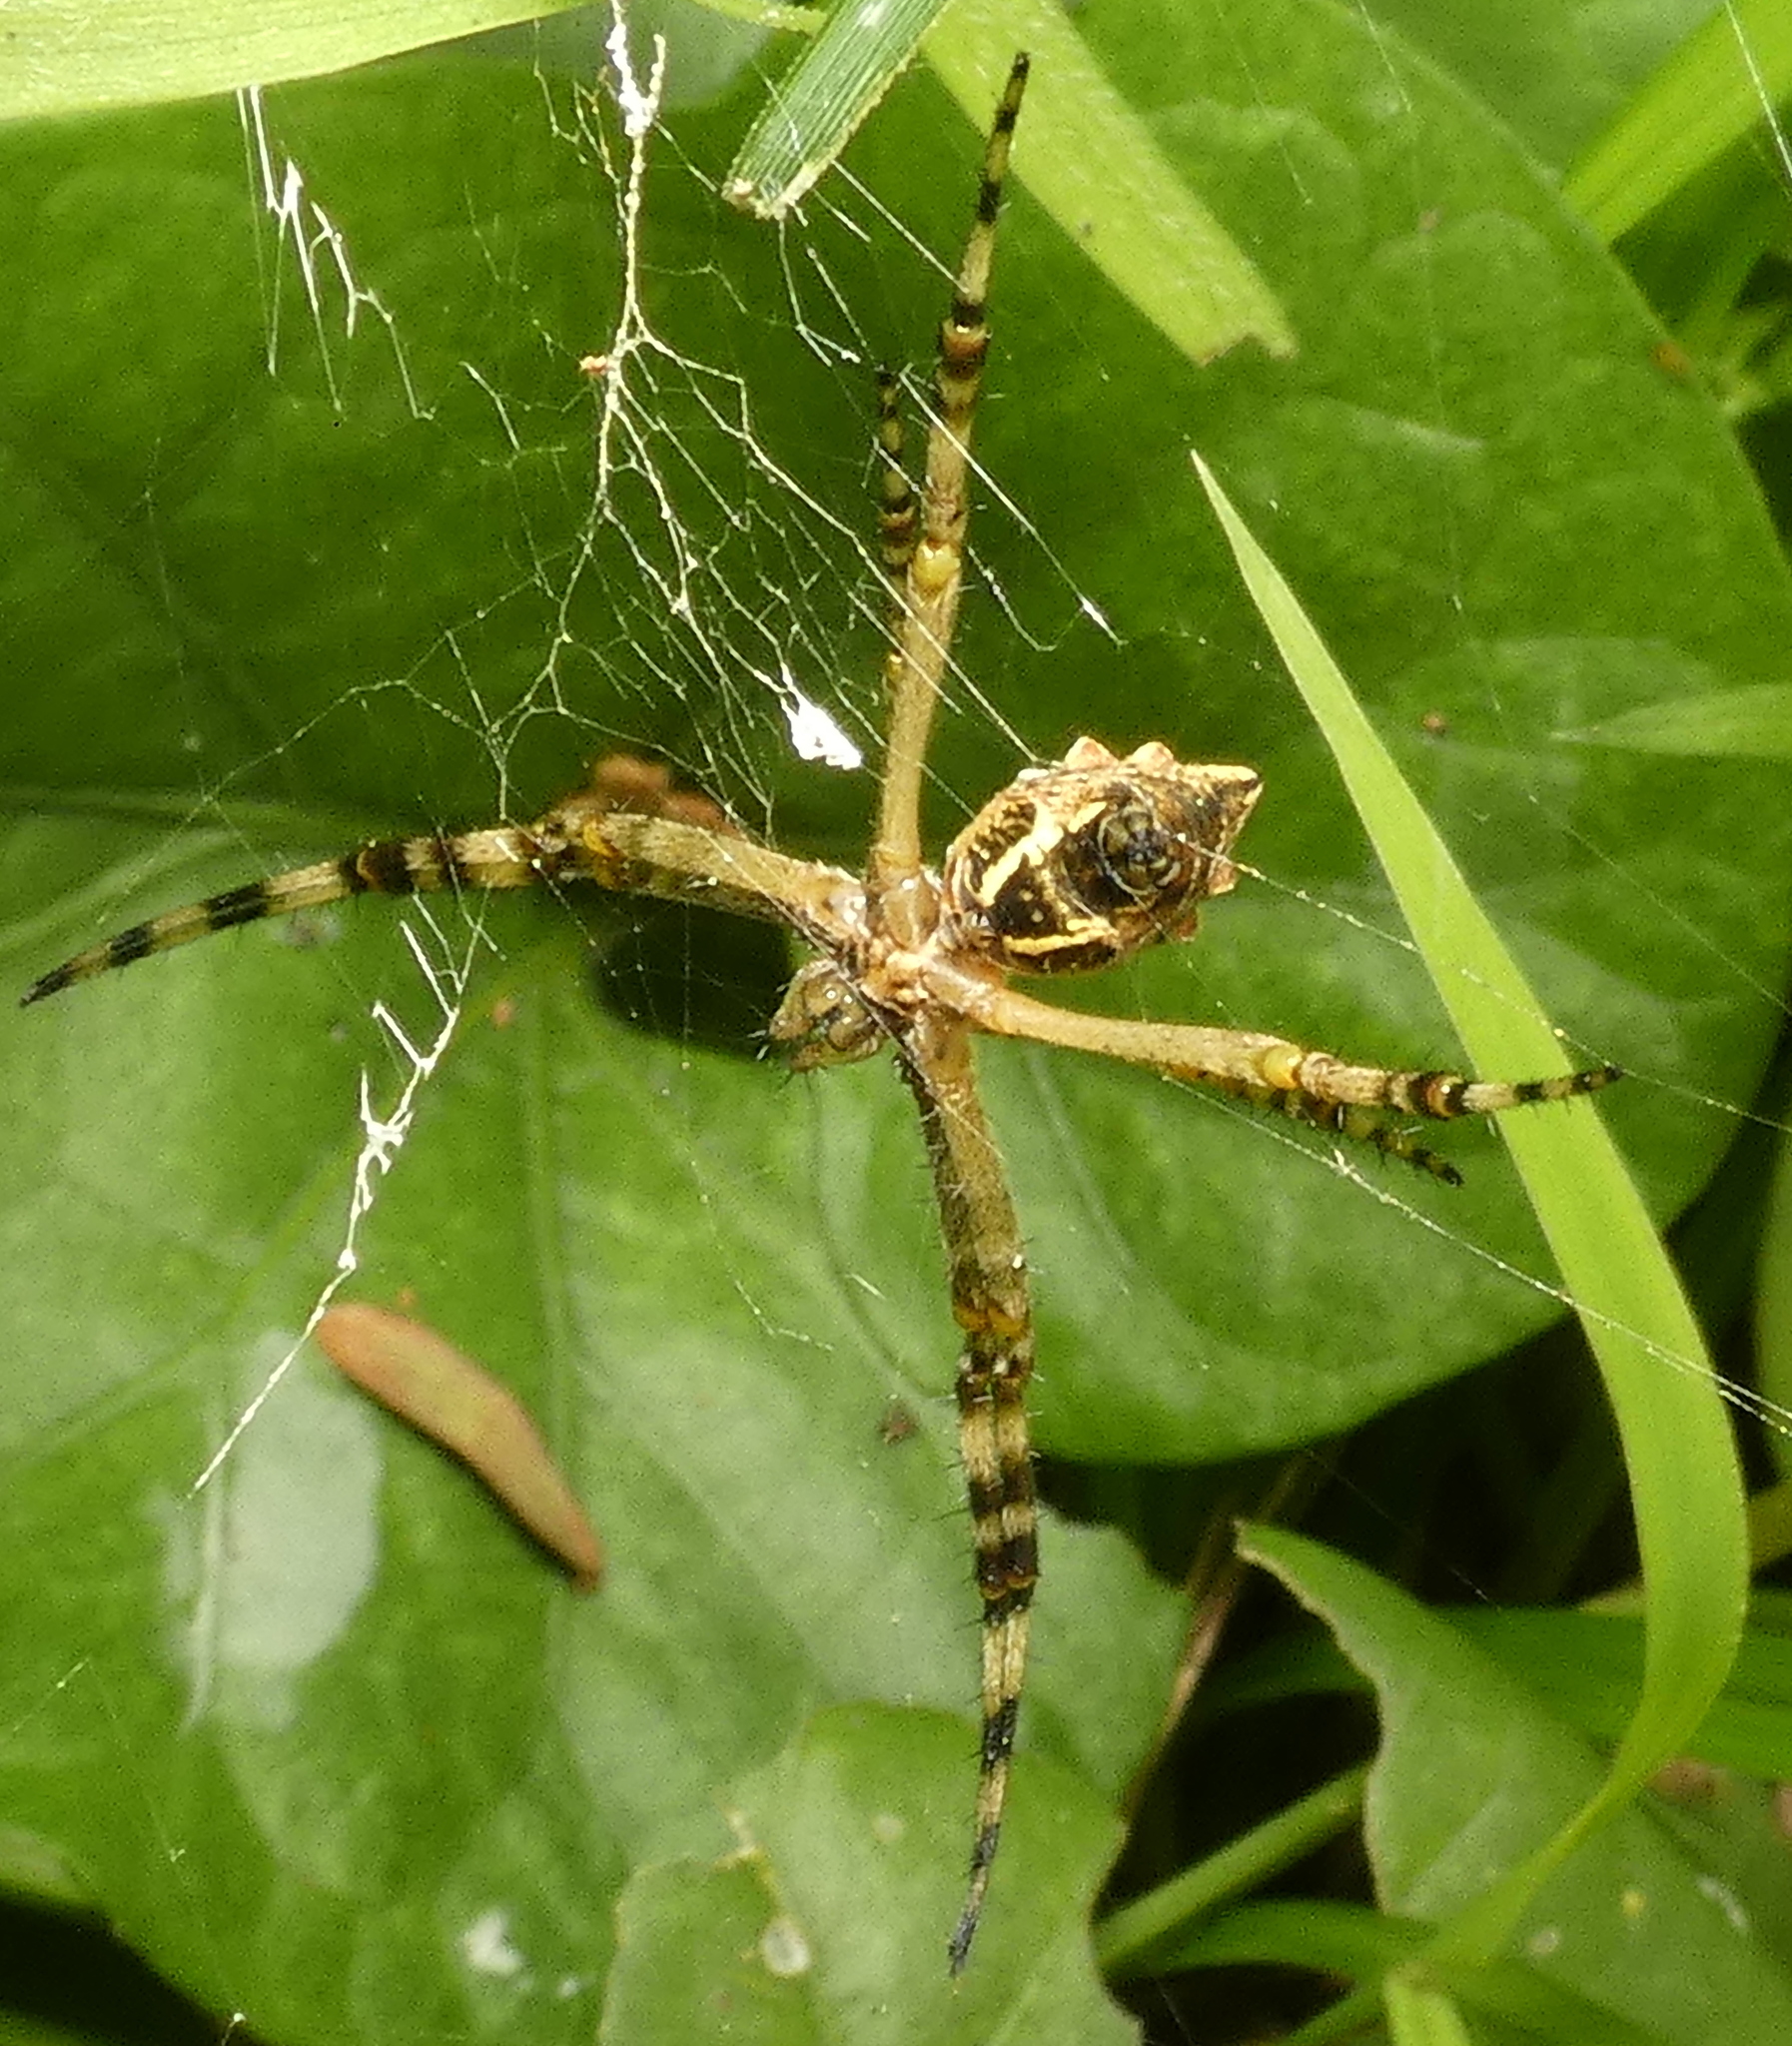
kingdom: Animalia
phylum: Arthropoda
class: Arachnida
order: Araneae
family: Araneidae
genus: Argiope
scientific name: Argiope argentata
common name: Orb weavers
